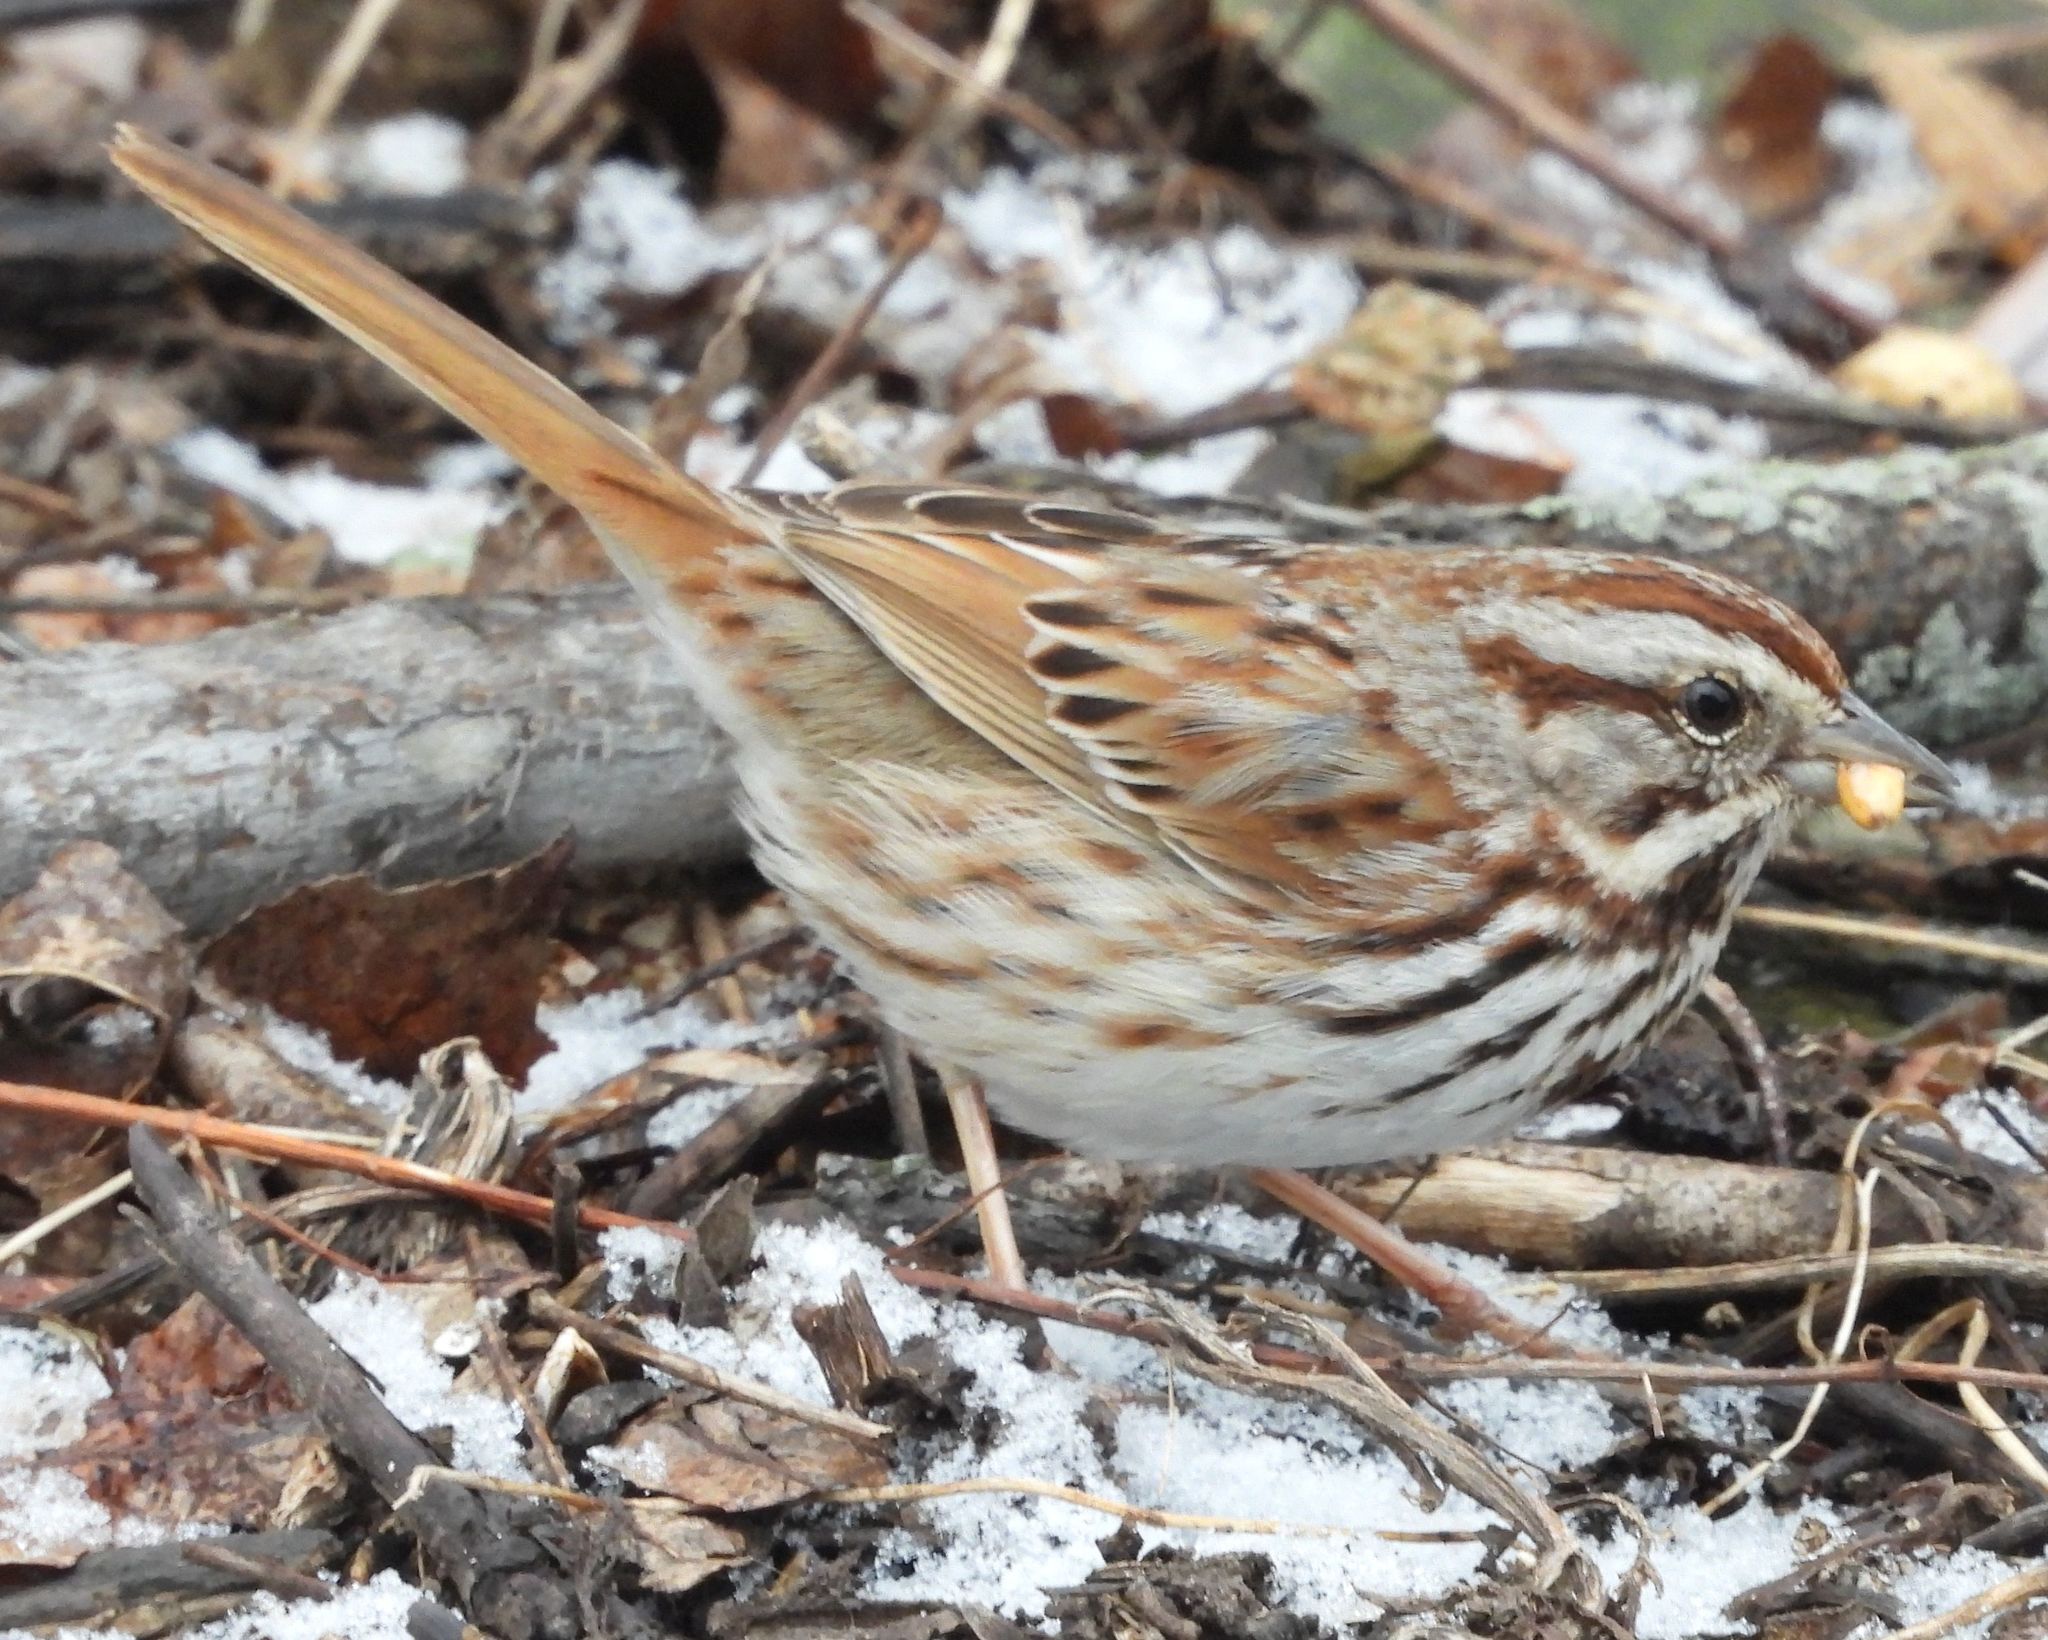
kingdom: Animalia
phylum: Chordata
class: Aves
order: Passeriformes
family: Passerellidae
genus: Melospiza
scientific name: Melospiza melodia
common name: Song sparrow
